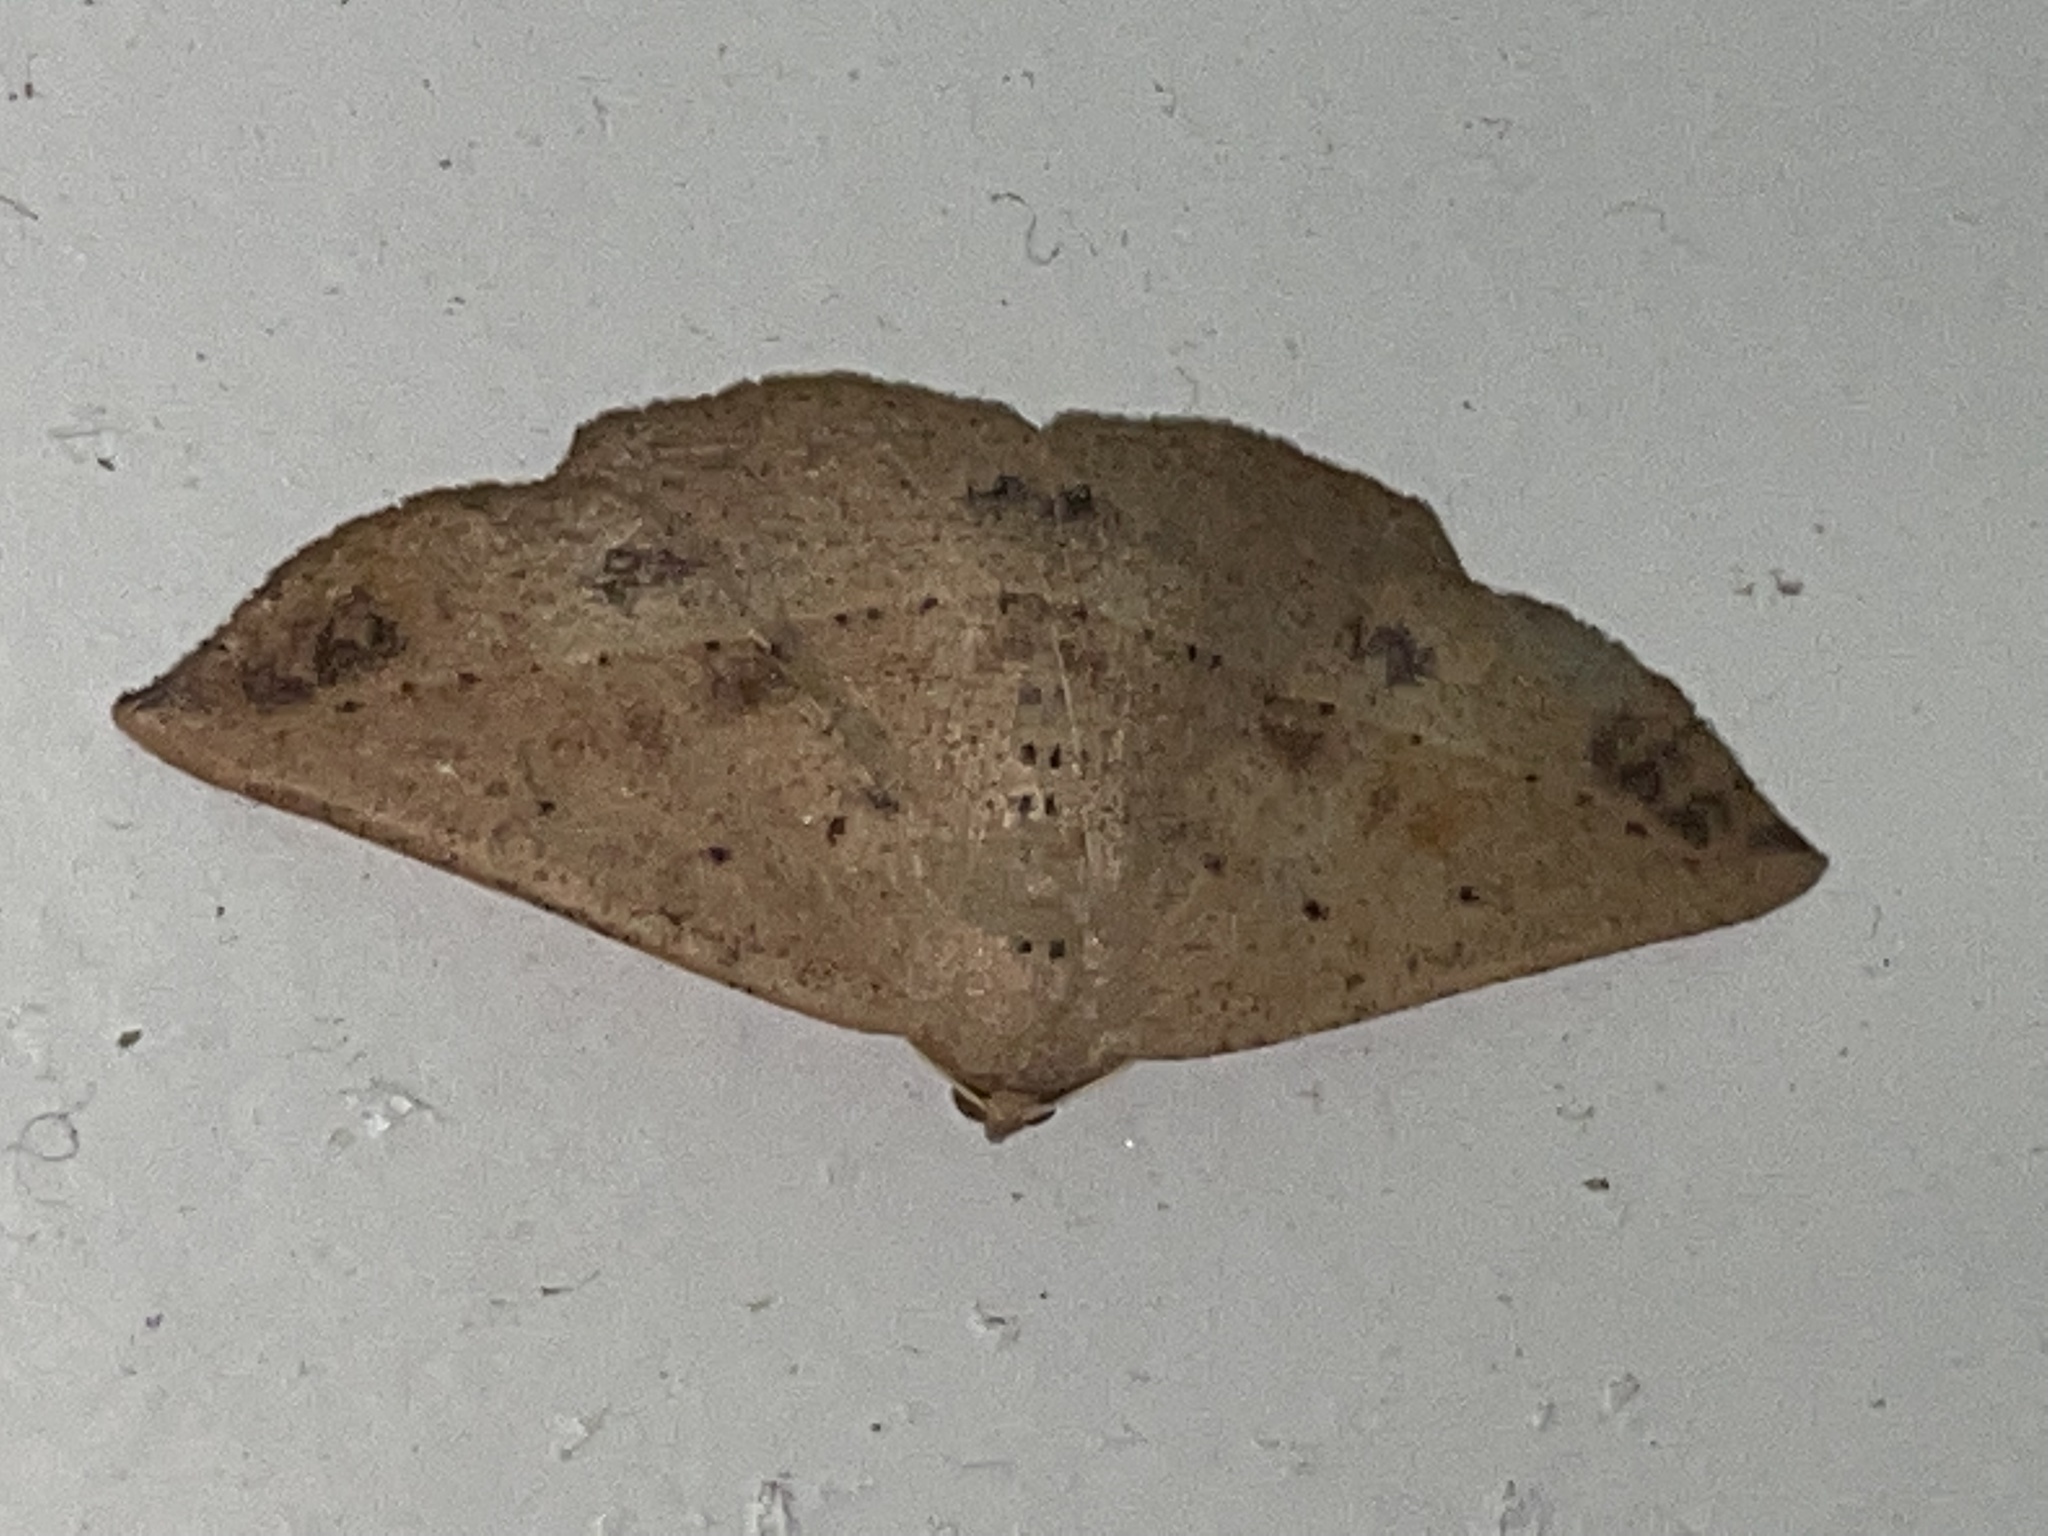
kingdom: Animalia
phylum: Arthropoda
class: Insecta
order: Lepidoptera
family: Geometridae
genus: Idiodes
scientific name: Idiodes apicata
